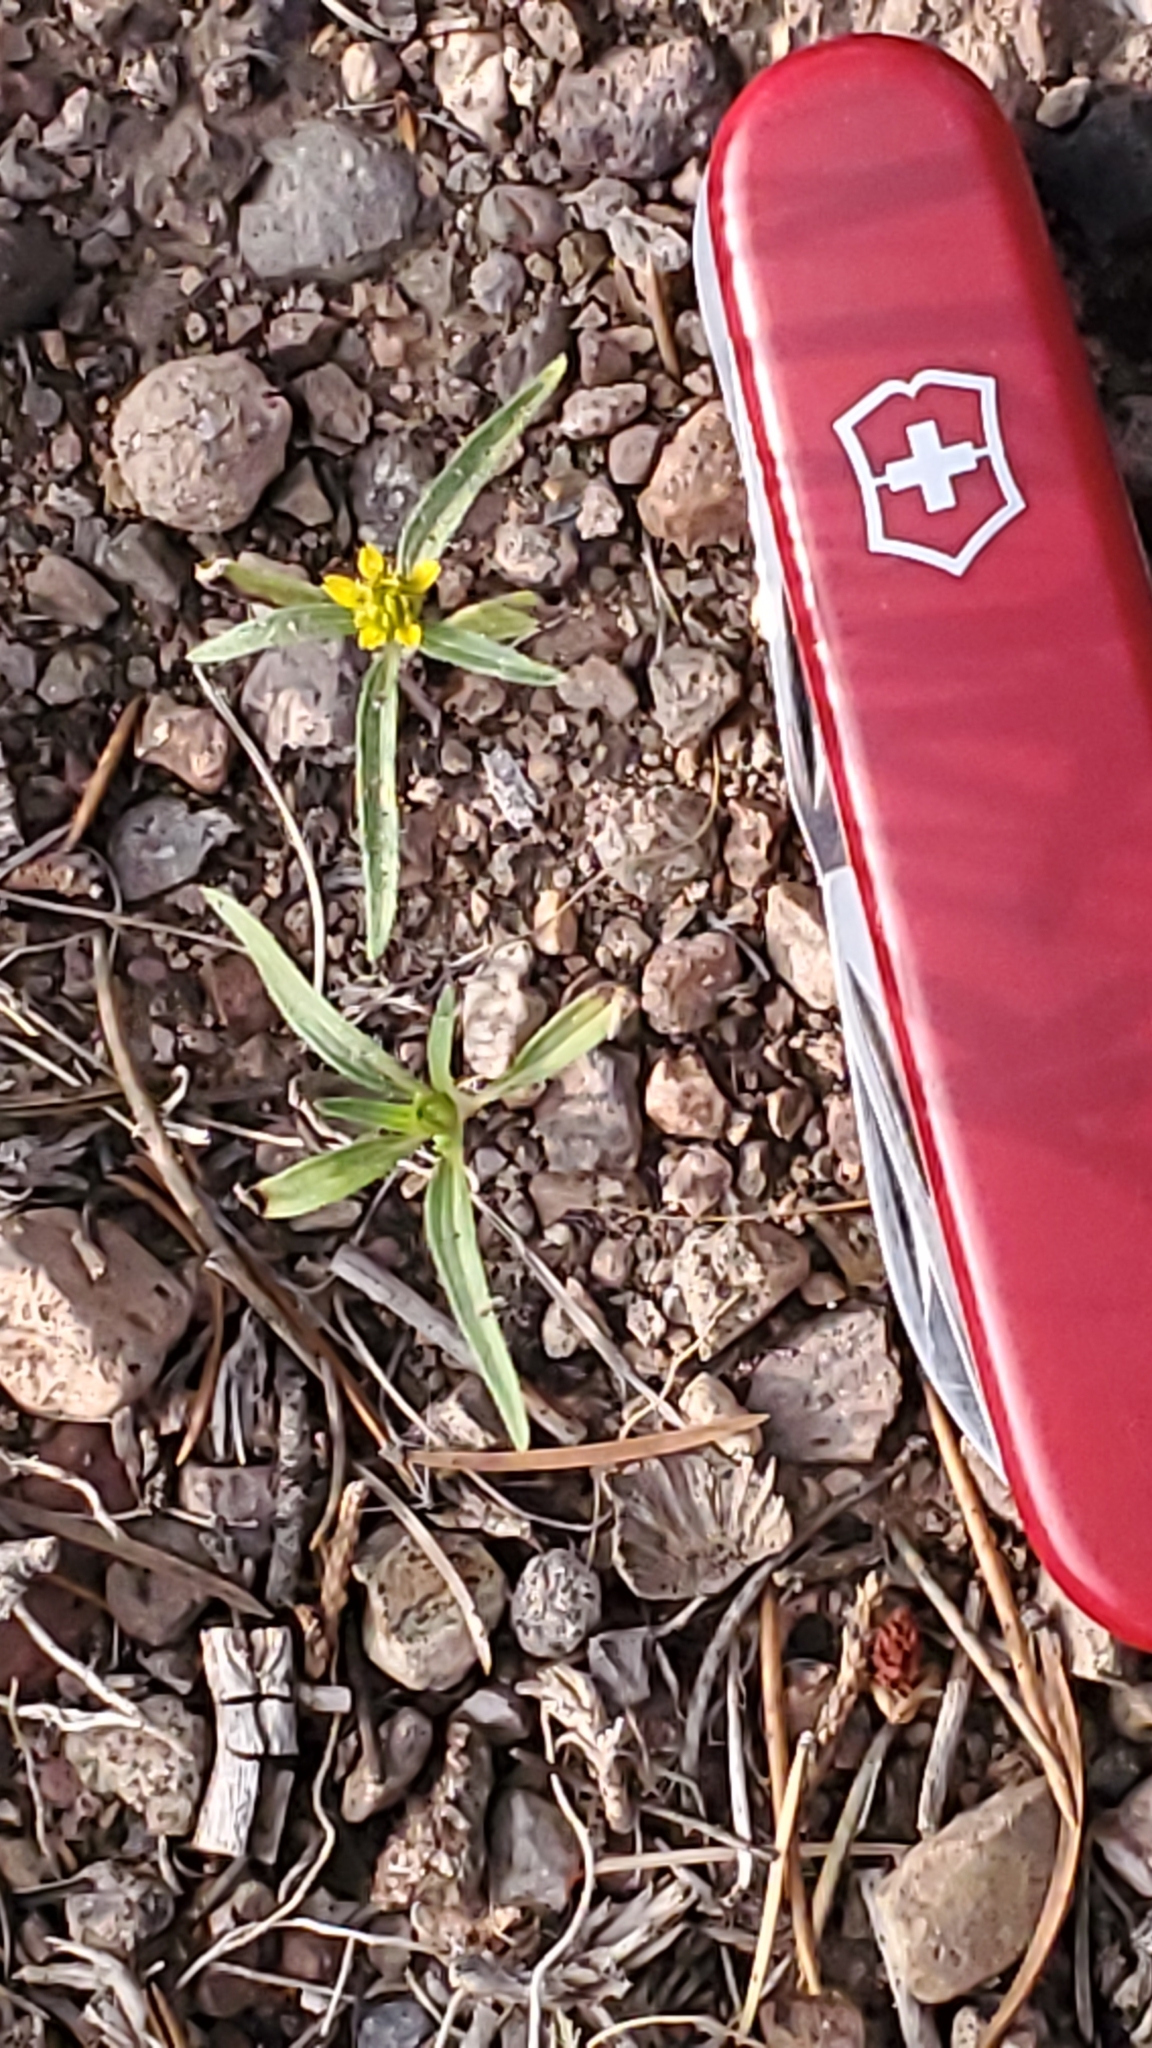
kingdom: Plantae
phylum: Tracheophyta
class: Magnoliopsida
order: Asterales
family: Asteraceae
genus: Sanvitalia
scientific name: Sanvitalia abertii
